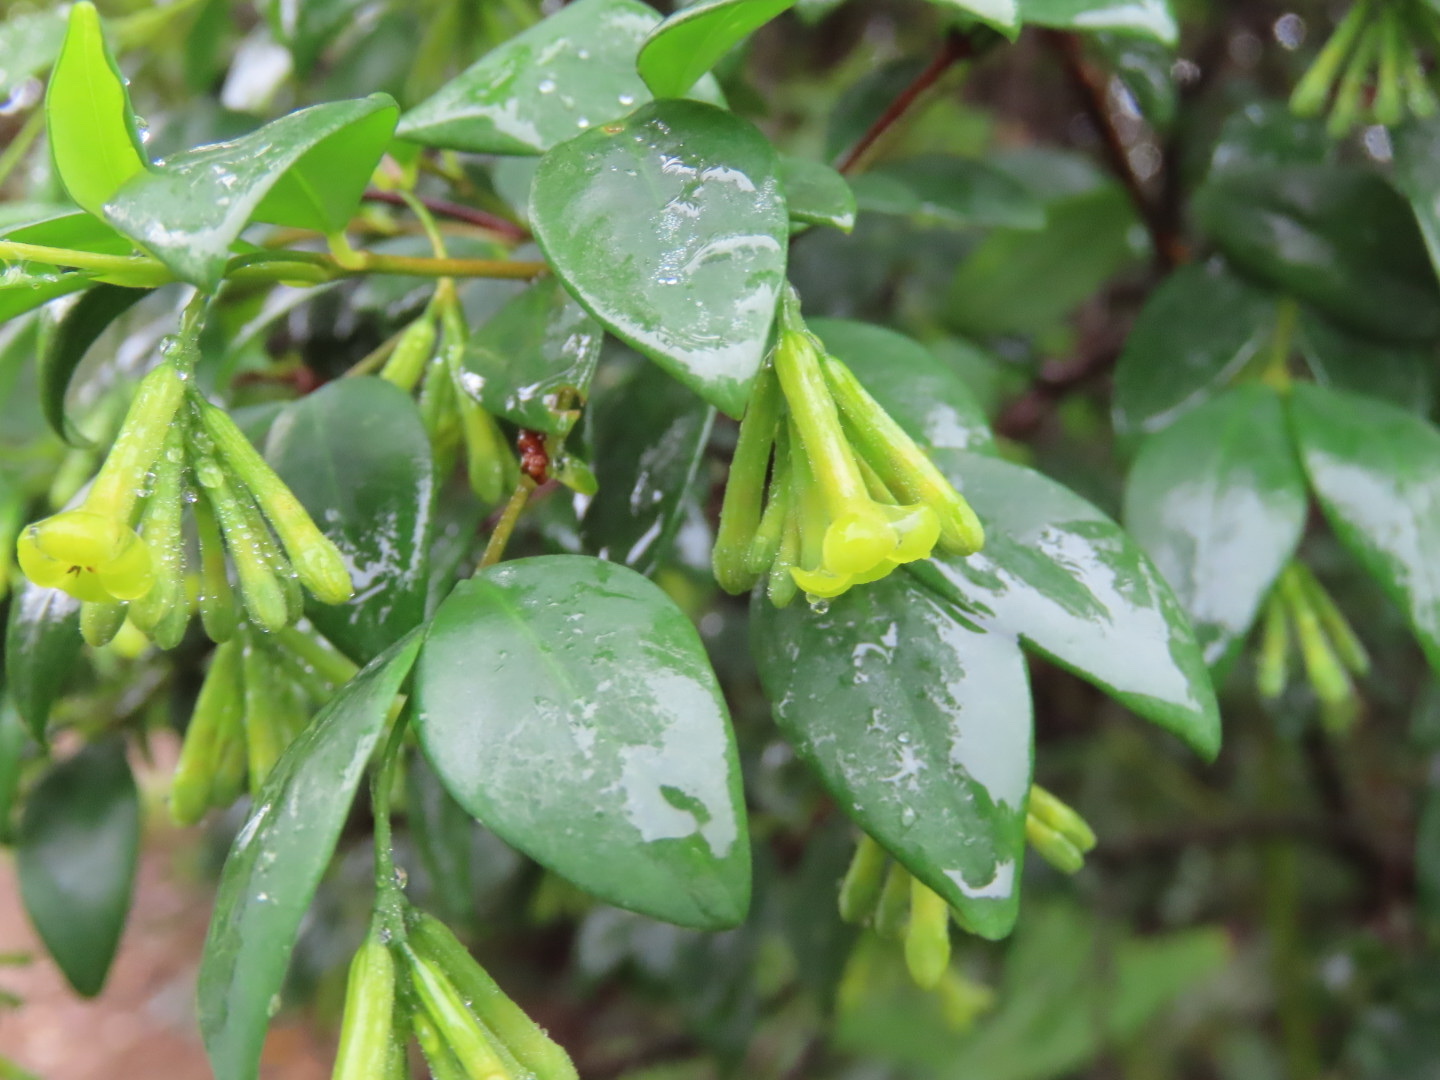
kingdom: Plantae
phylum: Tracheophyta
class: Magnoliopsida
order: Malvales
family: Thymelaeaceae
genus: Wikstroemia
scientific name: Wikstroemia nutans
